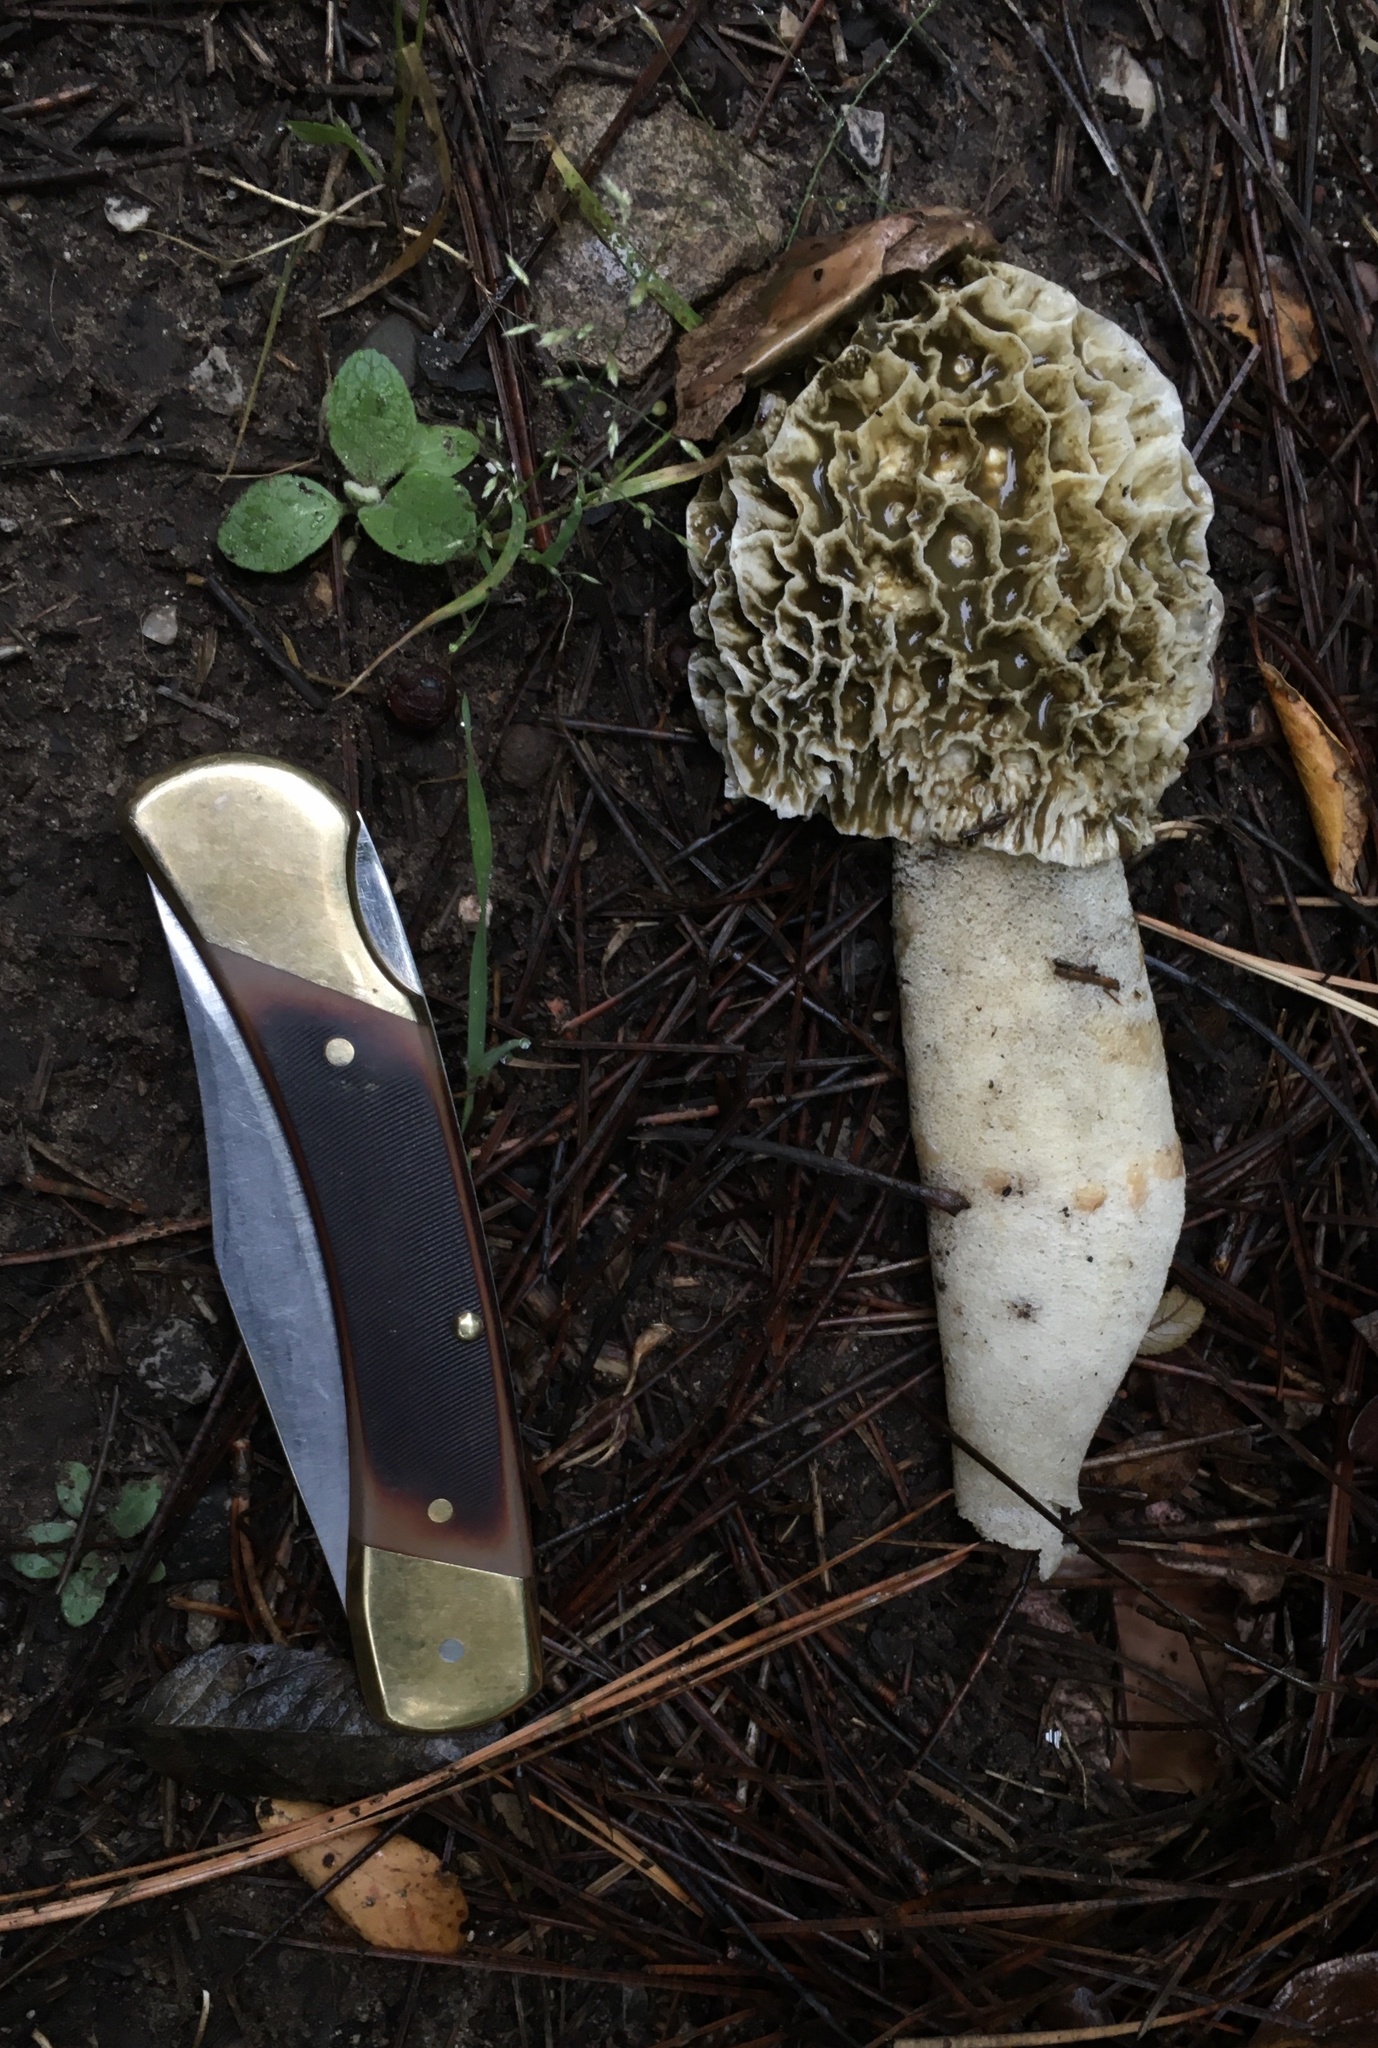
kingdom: Fungi
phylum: Basidiomycota
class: Agaricomycetes
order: Phallales
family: Phallaceae
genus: Phallus
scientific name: Phallus impudicus
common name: Common stinkhorn
